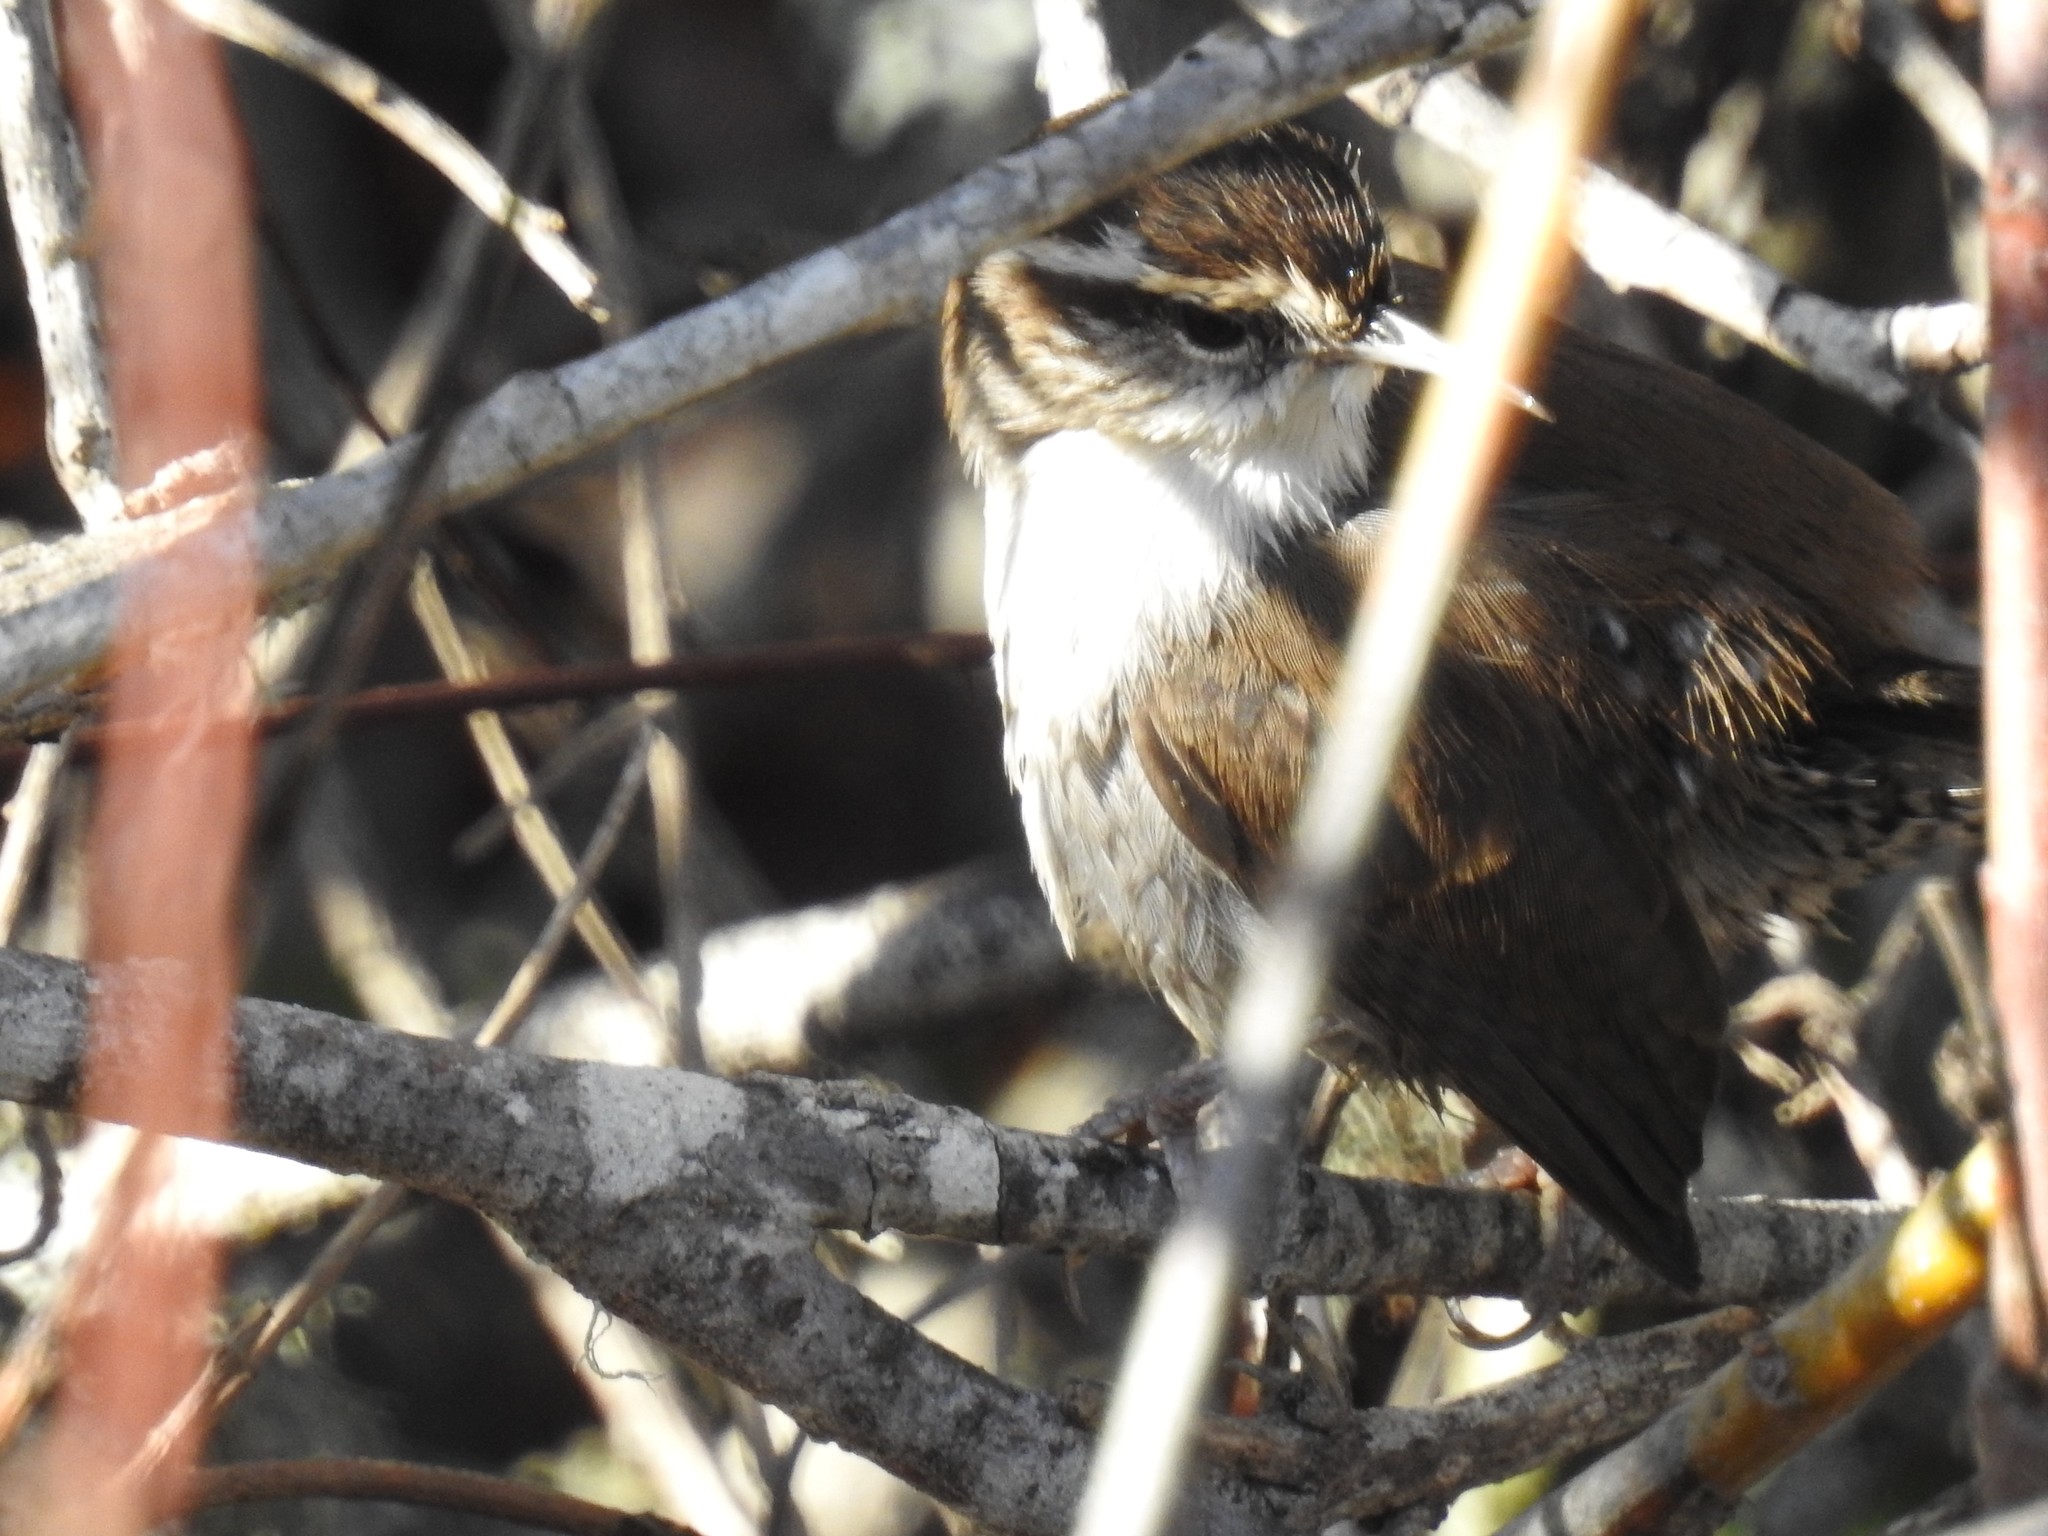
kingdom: Animalia
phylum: Chordata
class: Aves
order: Passeriformes
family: Troglodytidae
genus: Thryomanes
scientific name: Thryomanes bewickii
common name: Bewick's wren
